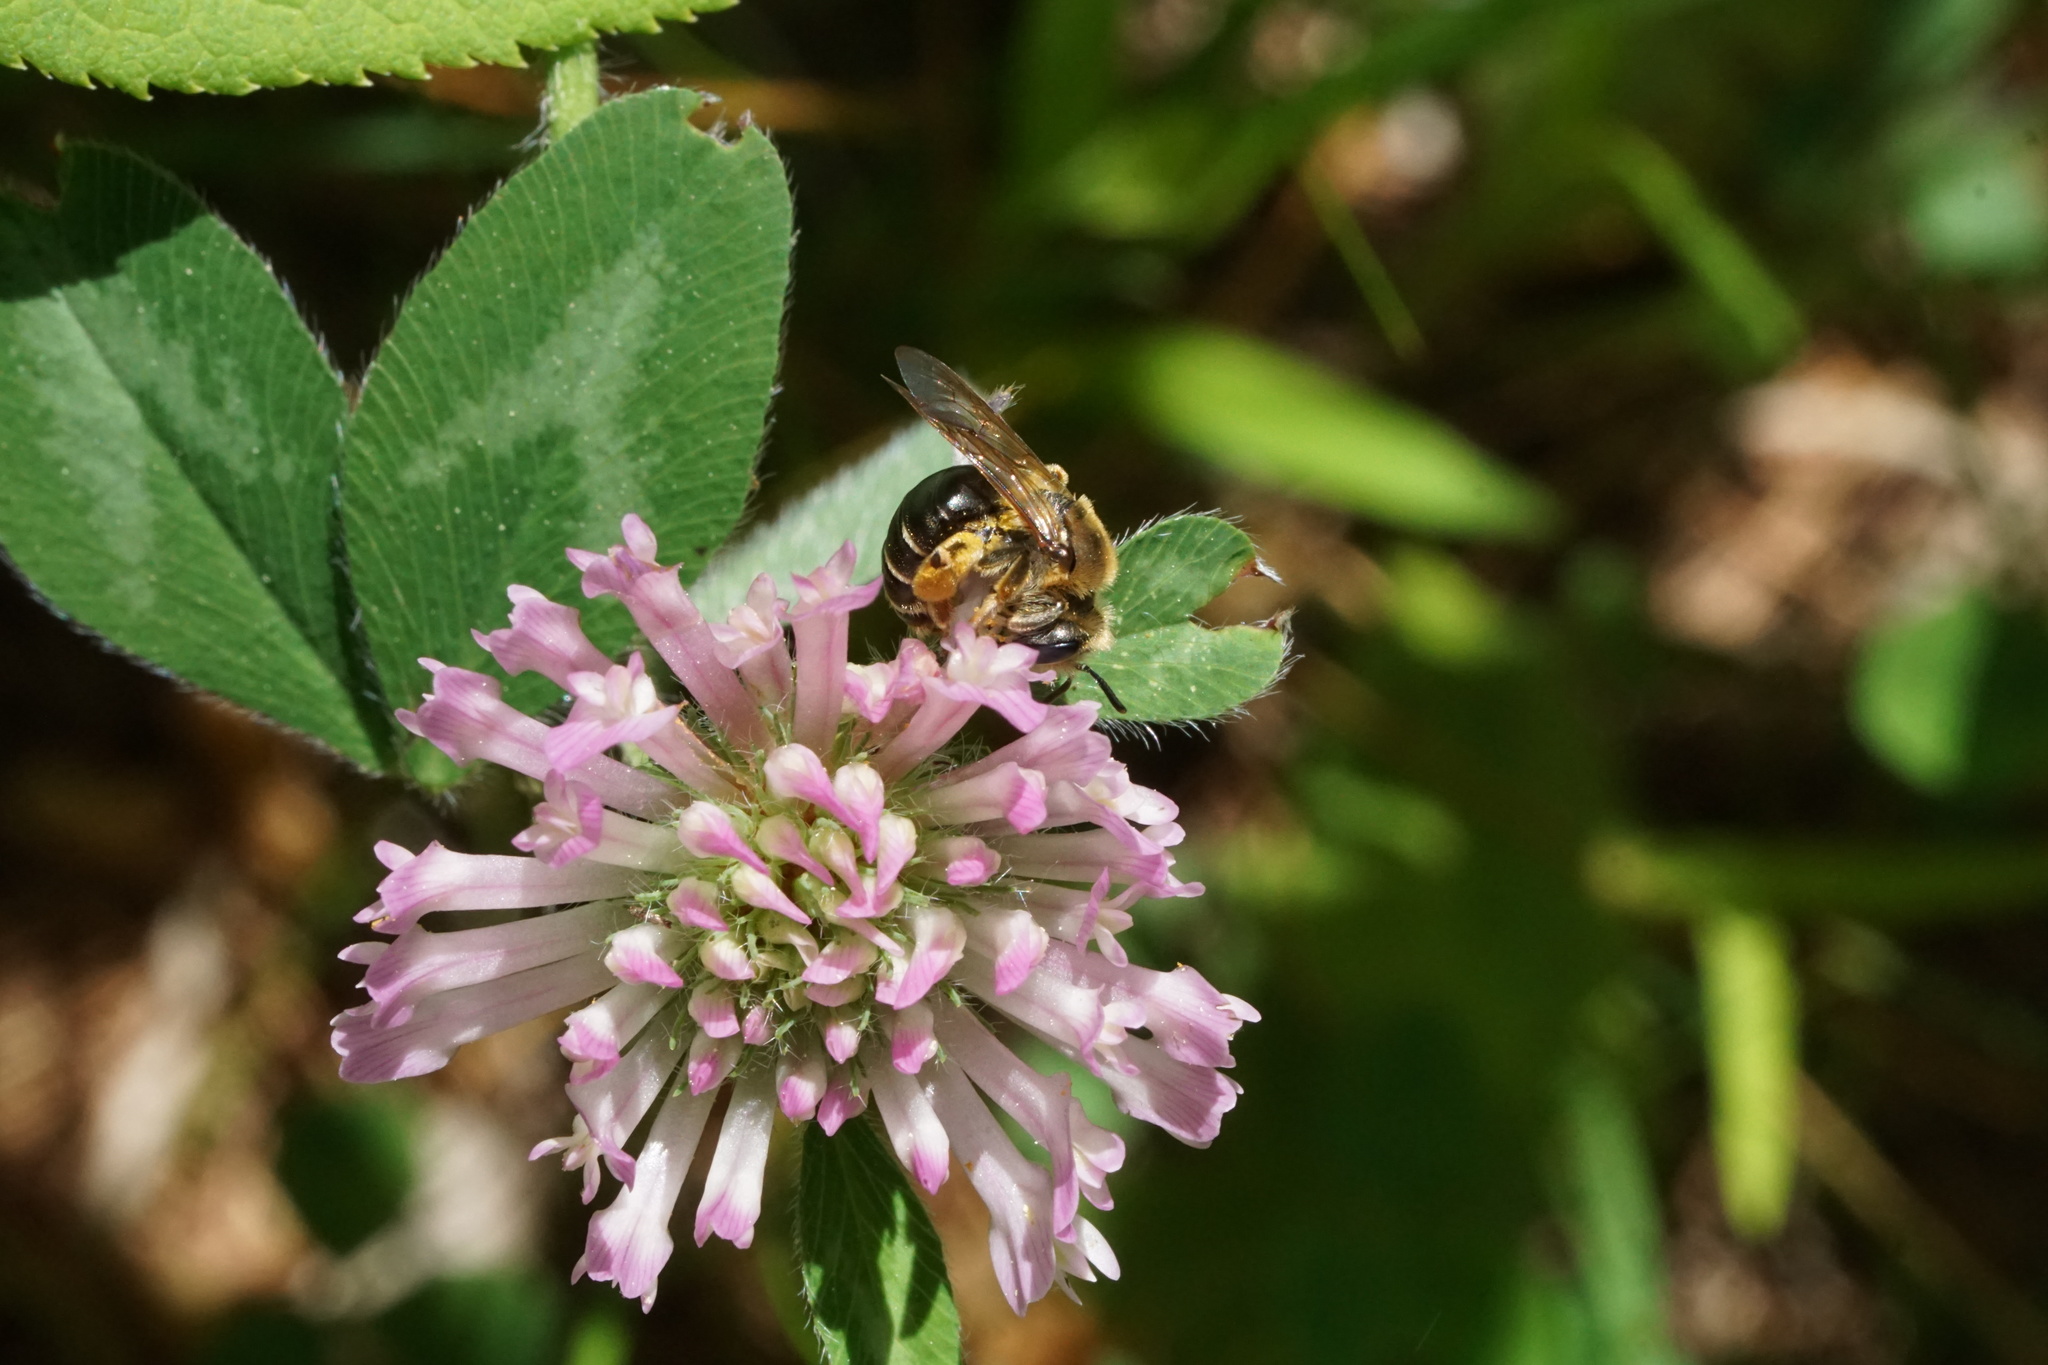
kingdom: Animalia
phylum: Arthropoda
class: Insecta
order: Hymenoptera
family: Andrenidae
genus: Andrena
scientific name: Andrena wilkella
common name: Wilke's mining bee
